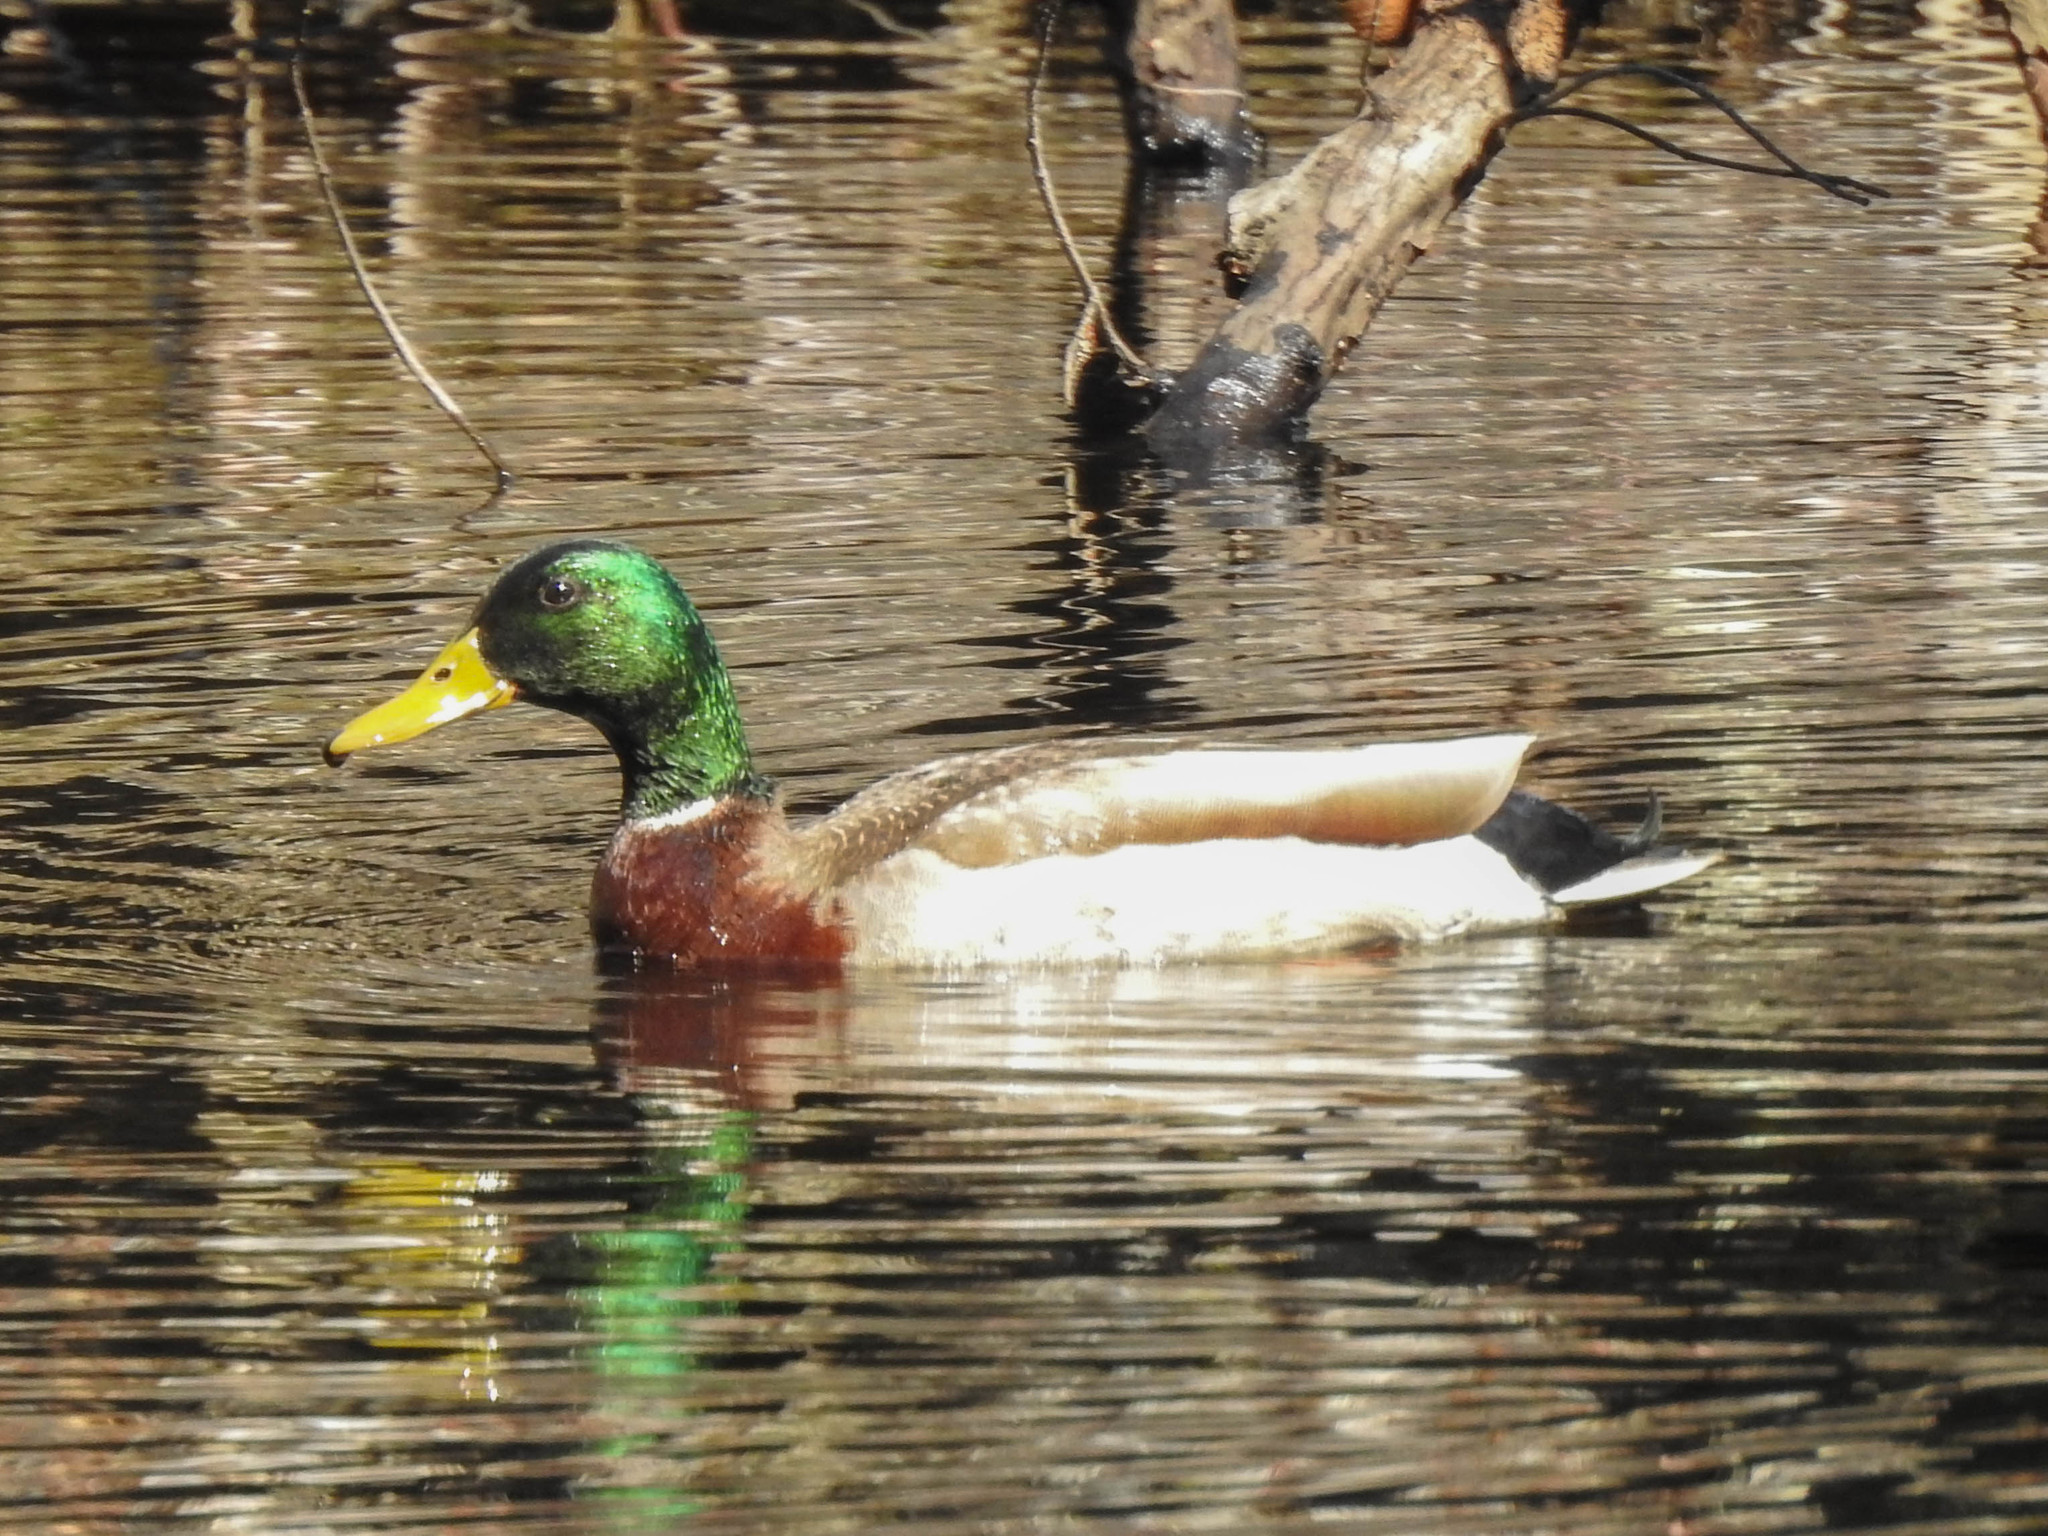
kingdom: Animalia
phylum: Chordata
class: Aves
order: Anseriformes
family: Anatidae
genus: Anas
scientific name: Anas platyrhynchos
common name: Mallard
